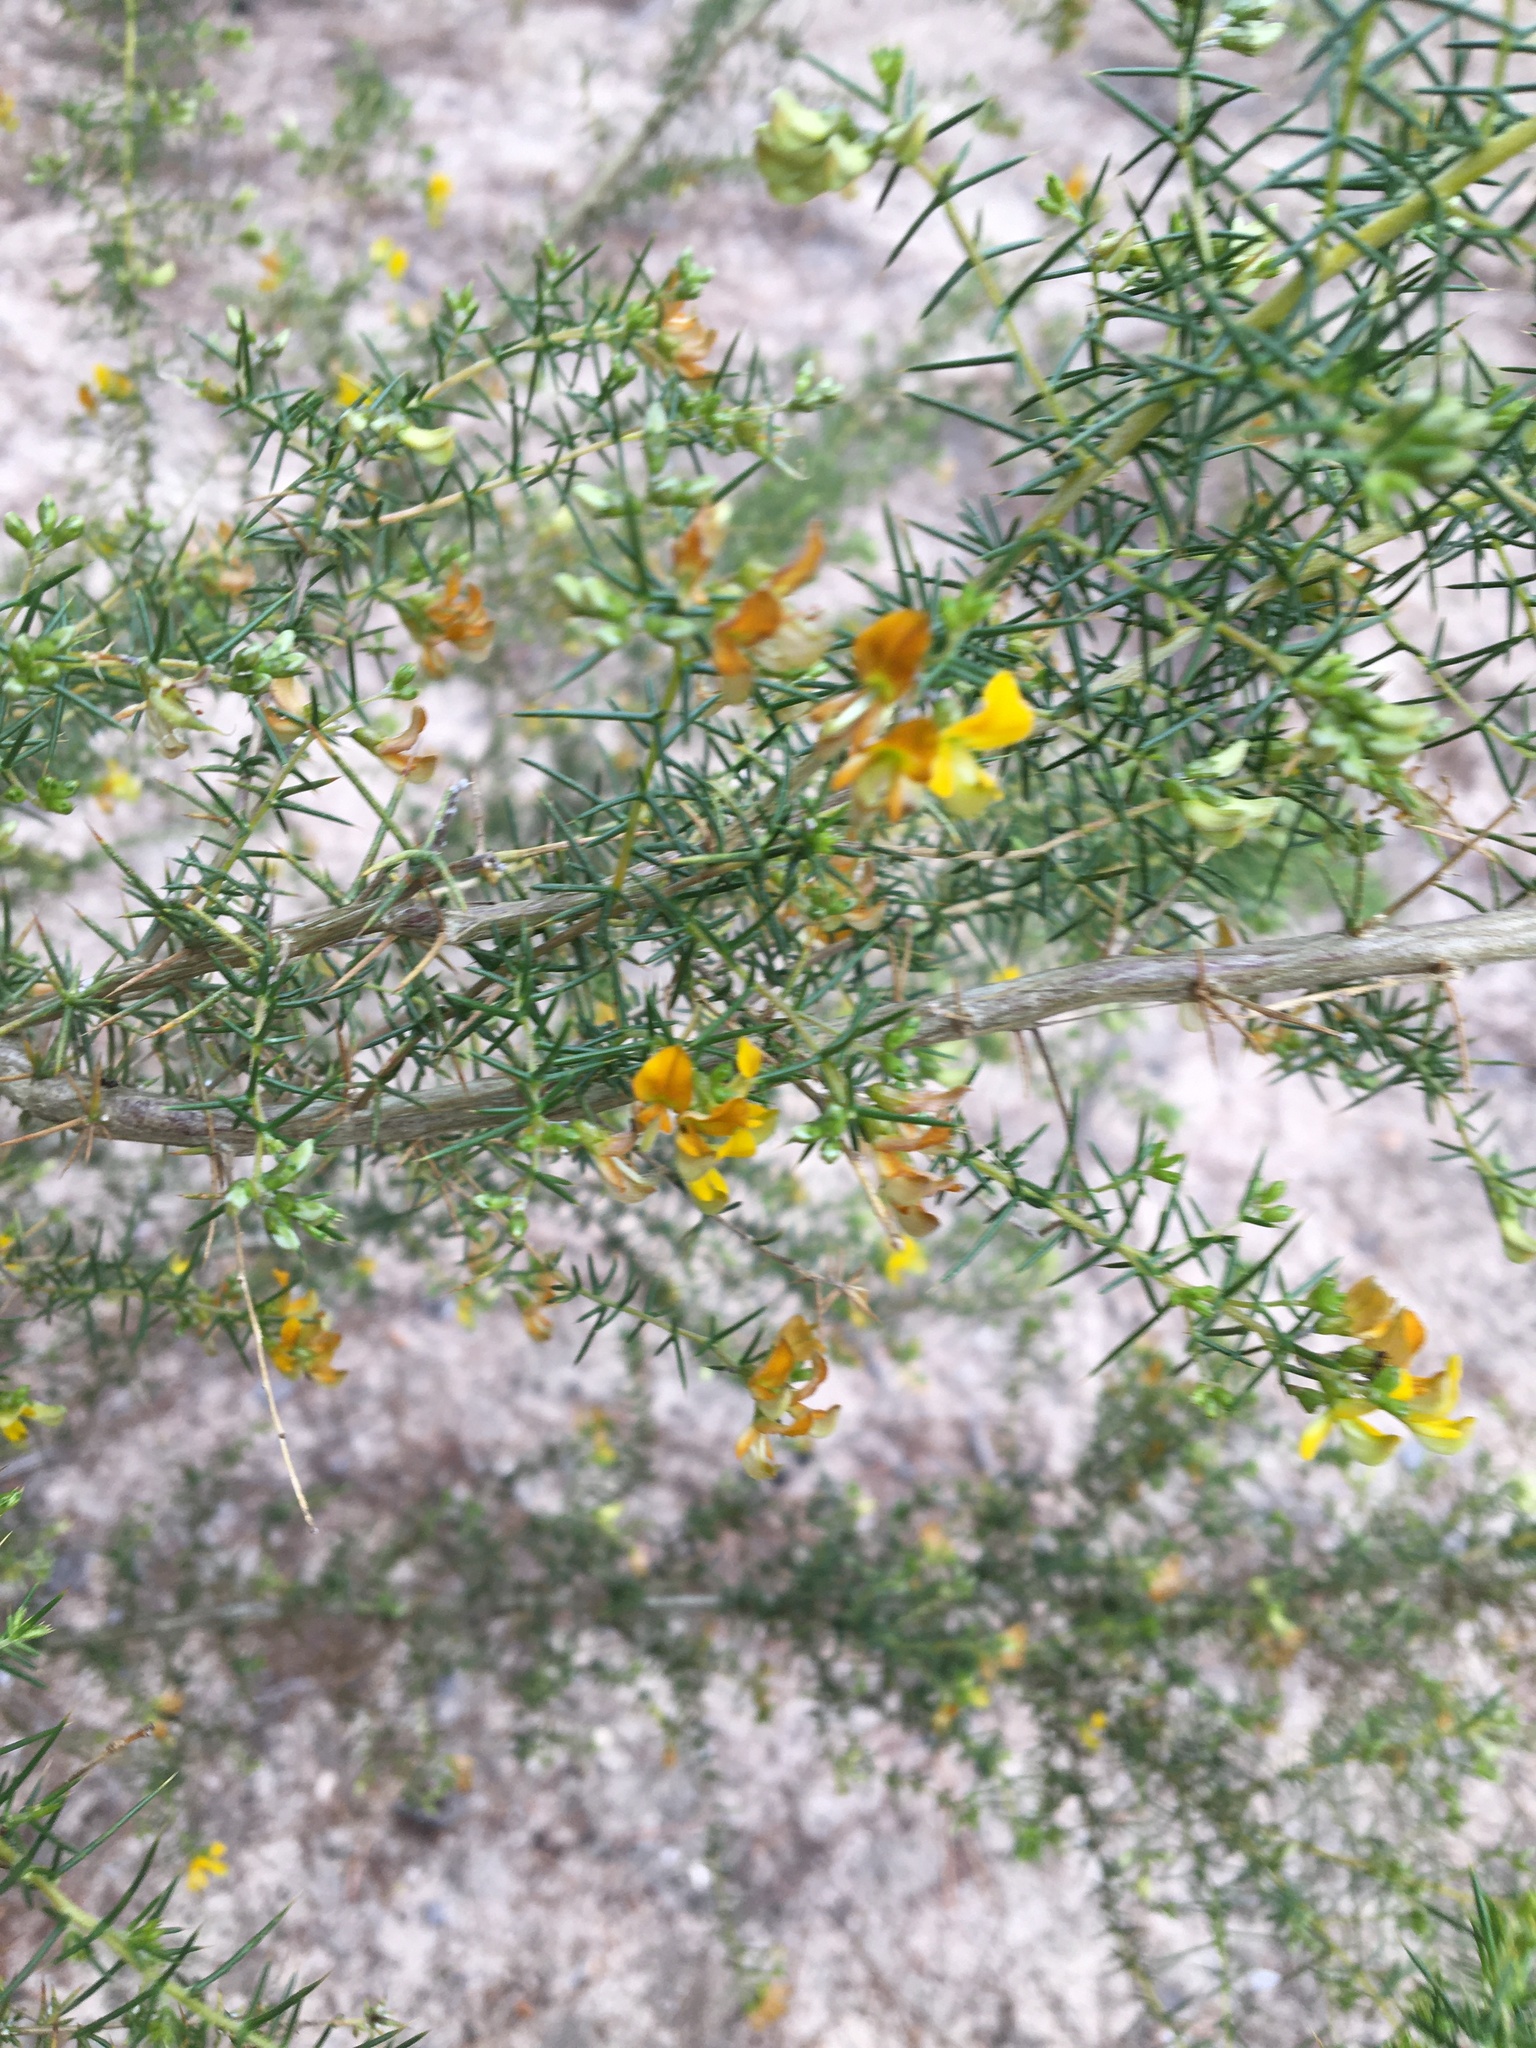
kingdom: Plantae
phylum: Tracheophyta
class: Magnoliopsida
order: Fabales
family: Fabaceae
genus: Aspalathus
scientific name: Aspalathus vulnerans
